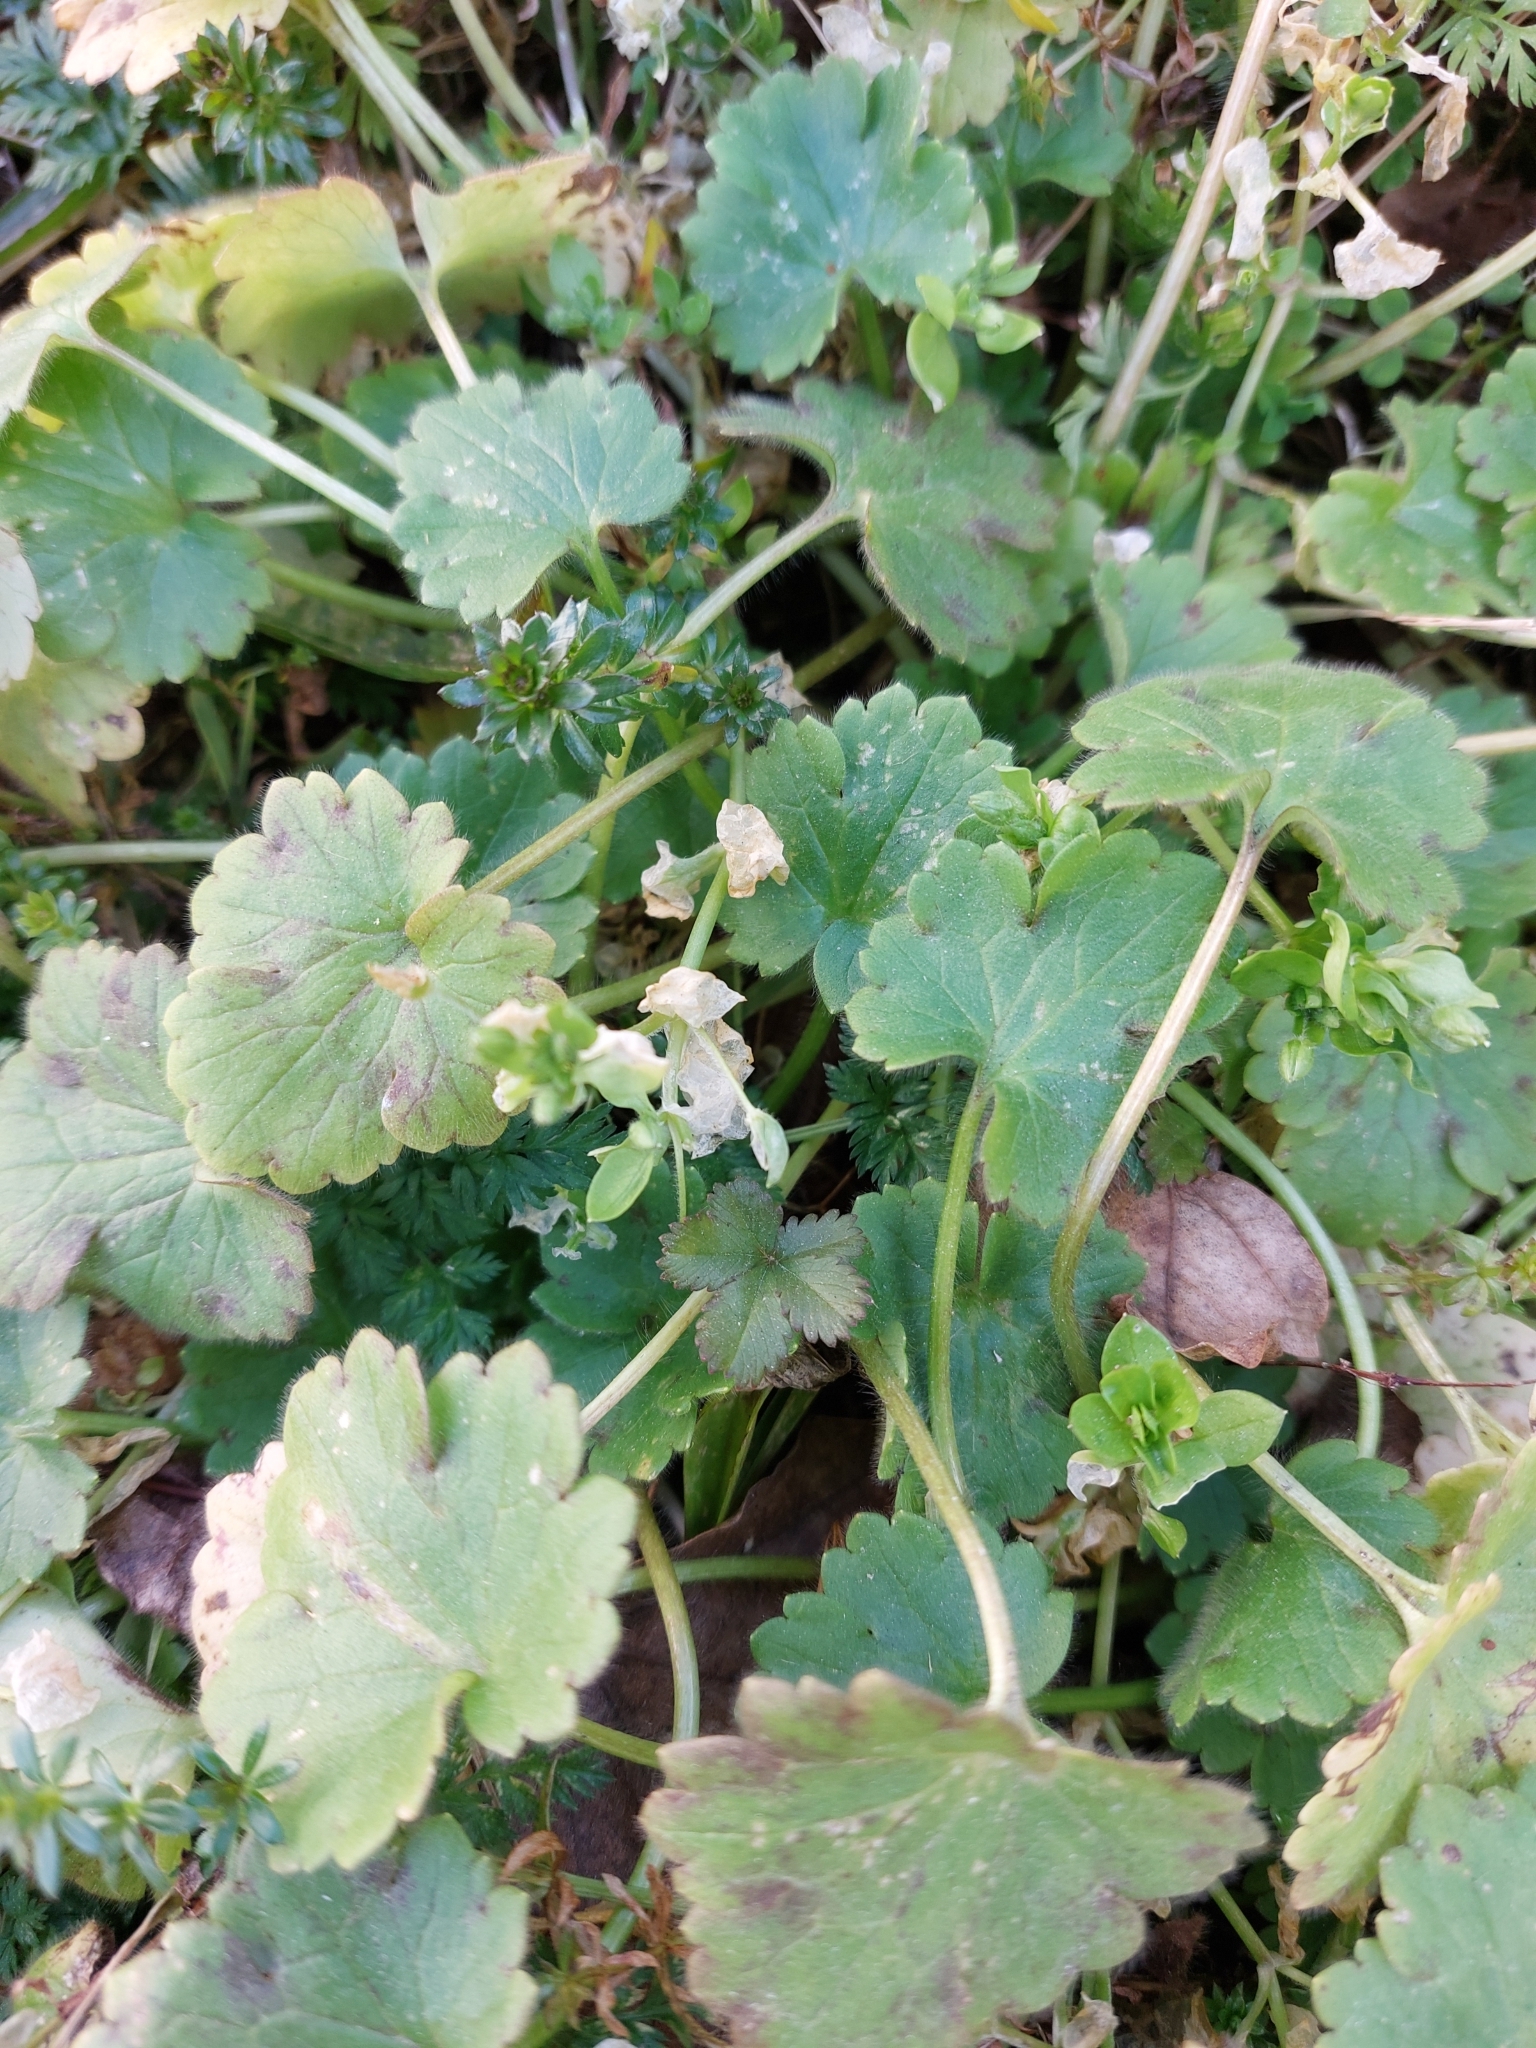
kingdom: Plantae
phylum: Tracheophyta
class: Magnoliopsida
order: Ranunculales
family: Ranunculaceae
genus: Ranunculus
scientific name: Ranunculus parviflorus
